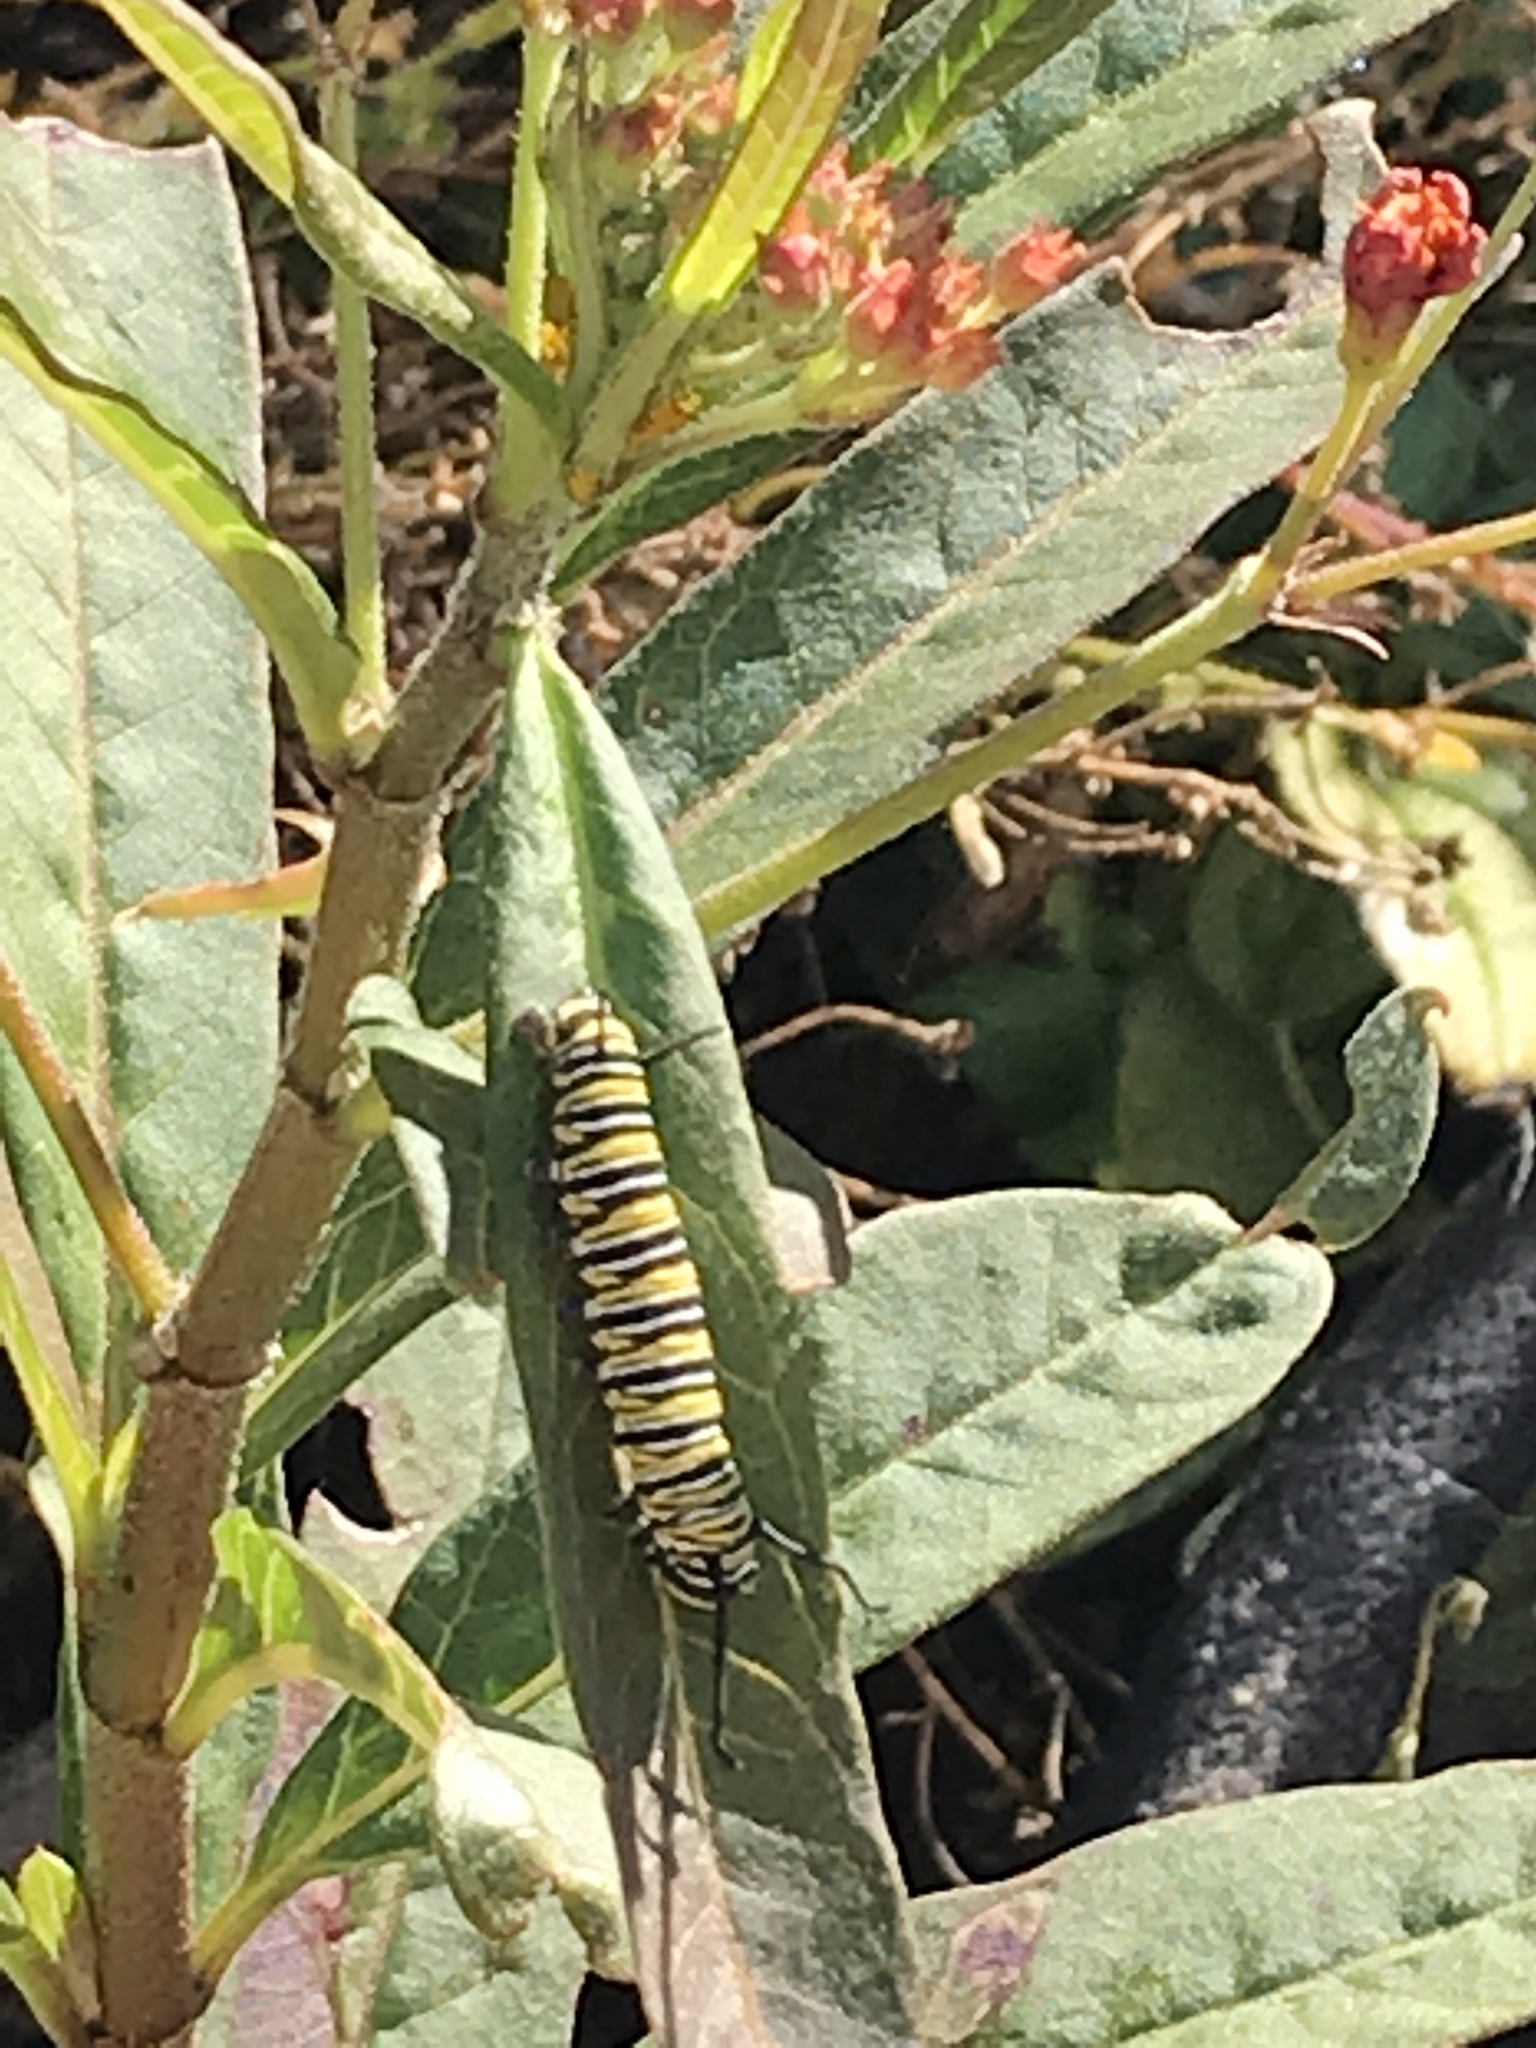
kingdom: Animalia
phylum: Arthropoda
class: Insecta
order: Lepidoptera
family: Nymphalidae
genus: Danaus
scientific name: Danaus plexippus
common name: Monarch
